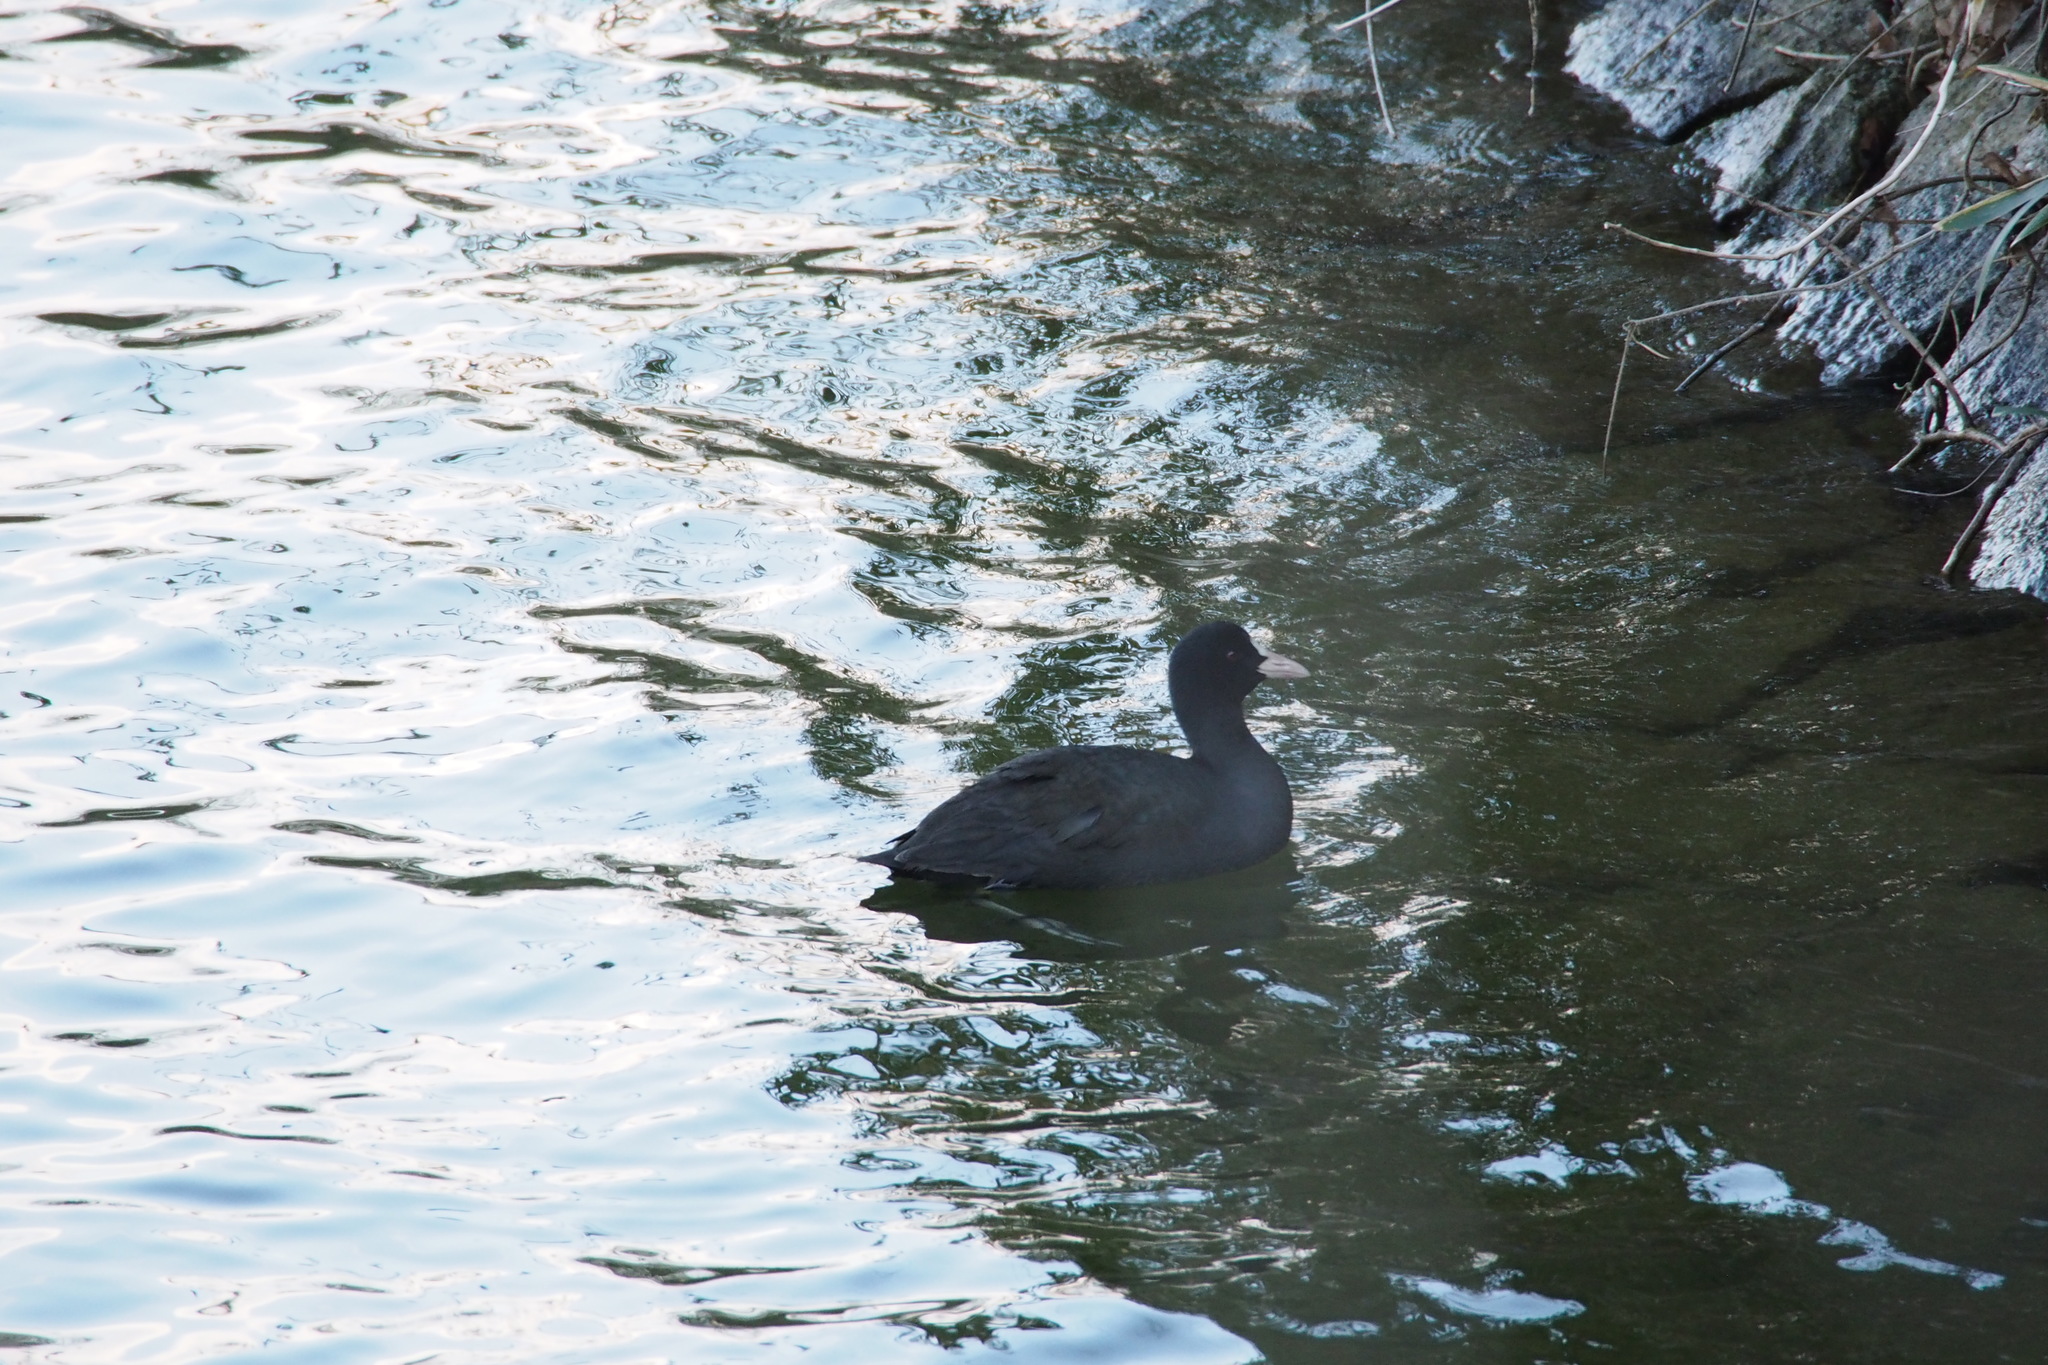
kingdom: Animalia
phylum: Chordata
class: Aves
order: Gruiformes
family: Rallidae
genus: Fulica
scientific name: Fulica atra
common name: Eurasian coot
